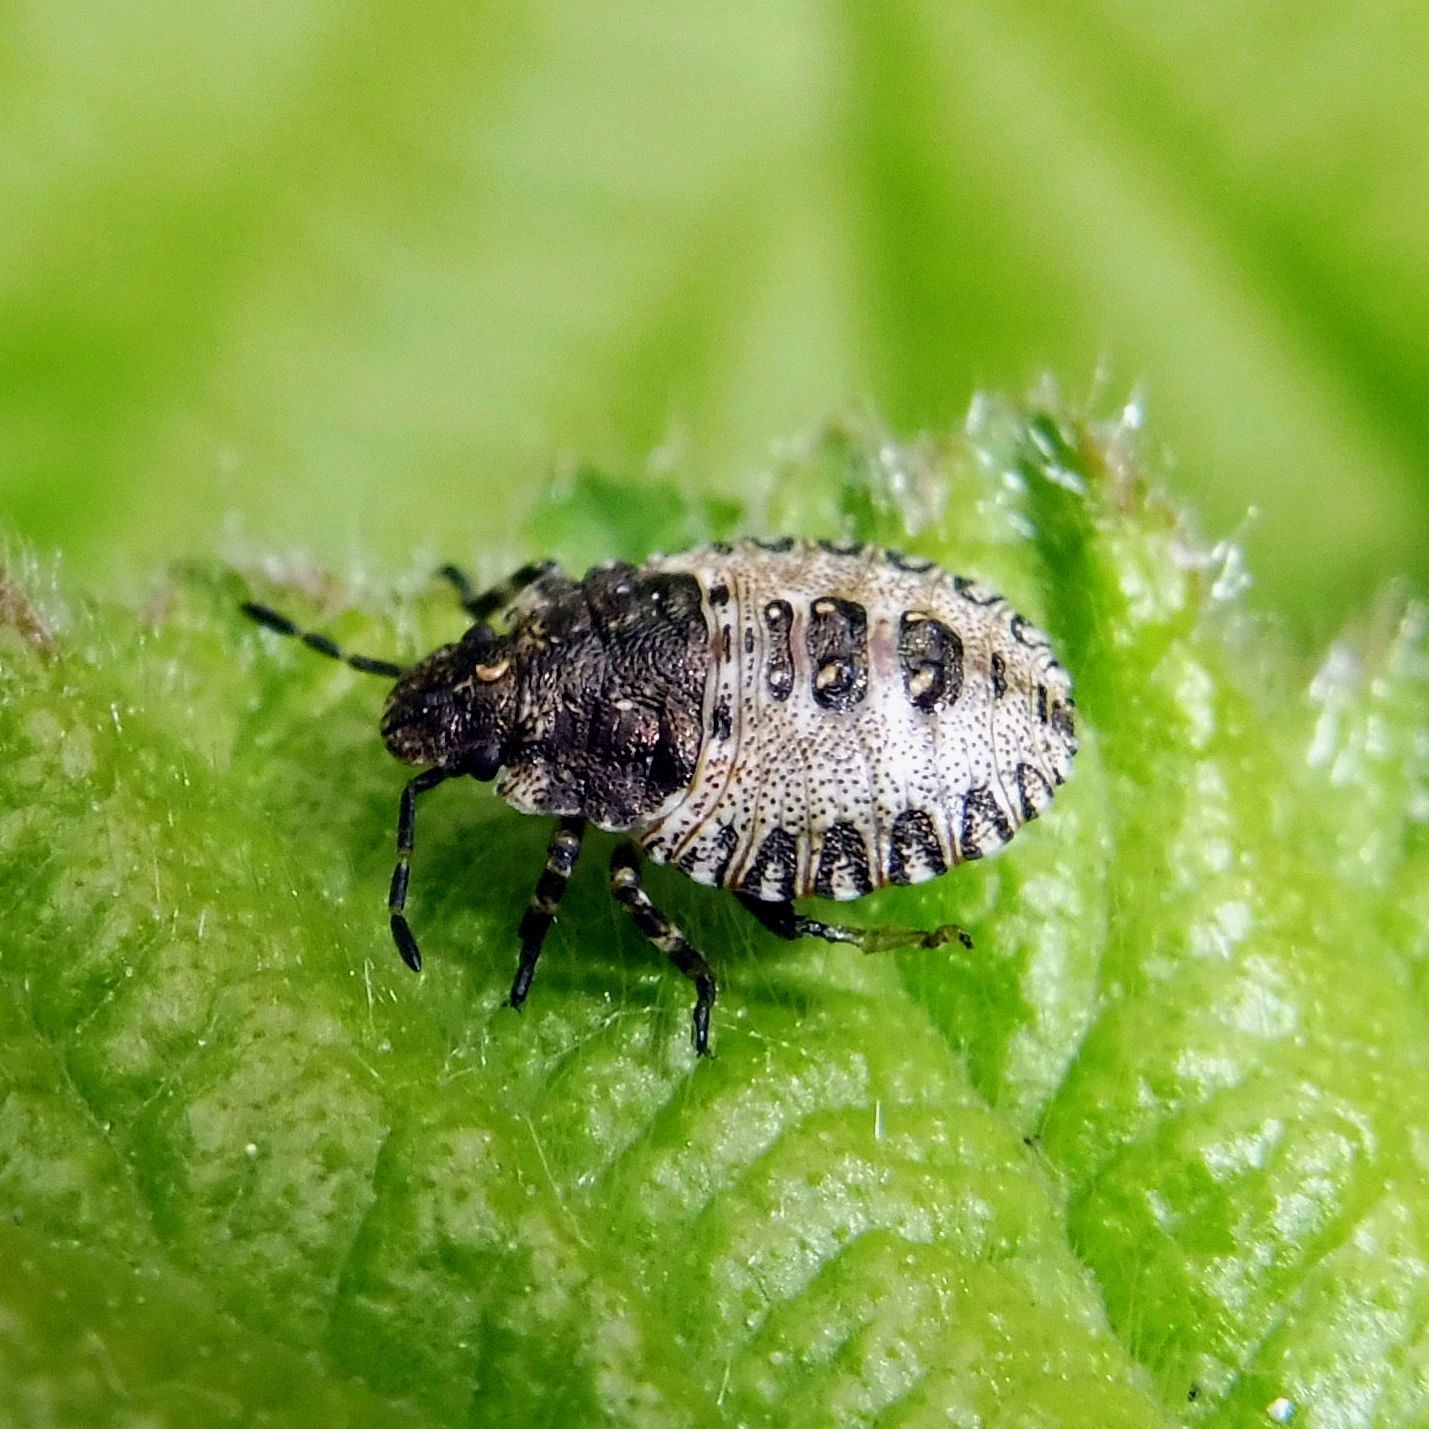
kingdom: Animalia
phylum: Arthropoda
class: Insecta
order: Hemiptera
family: Pentatomidae
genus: Pentatoma
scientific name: Pentatoma rufipes
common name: Forest bug
